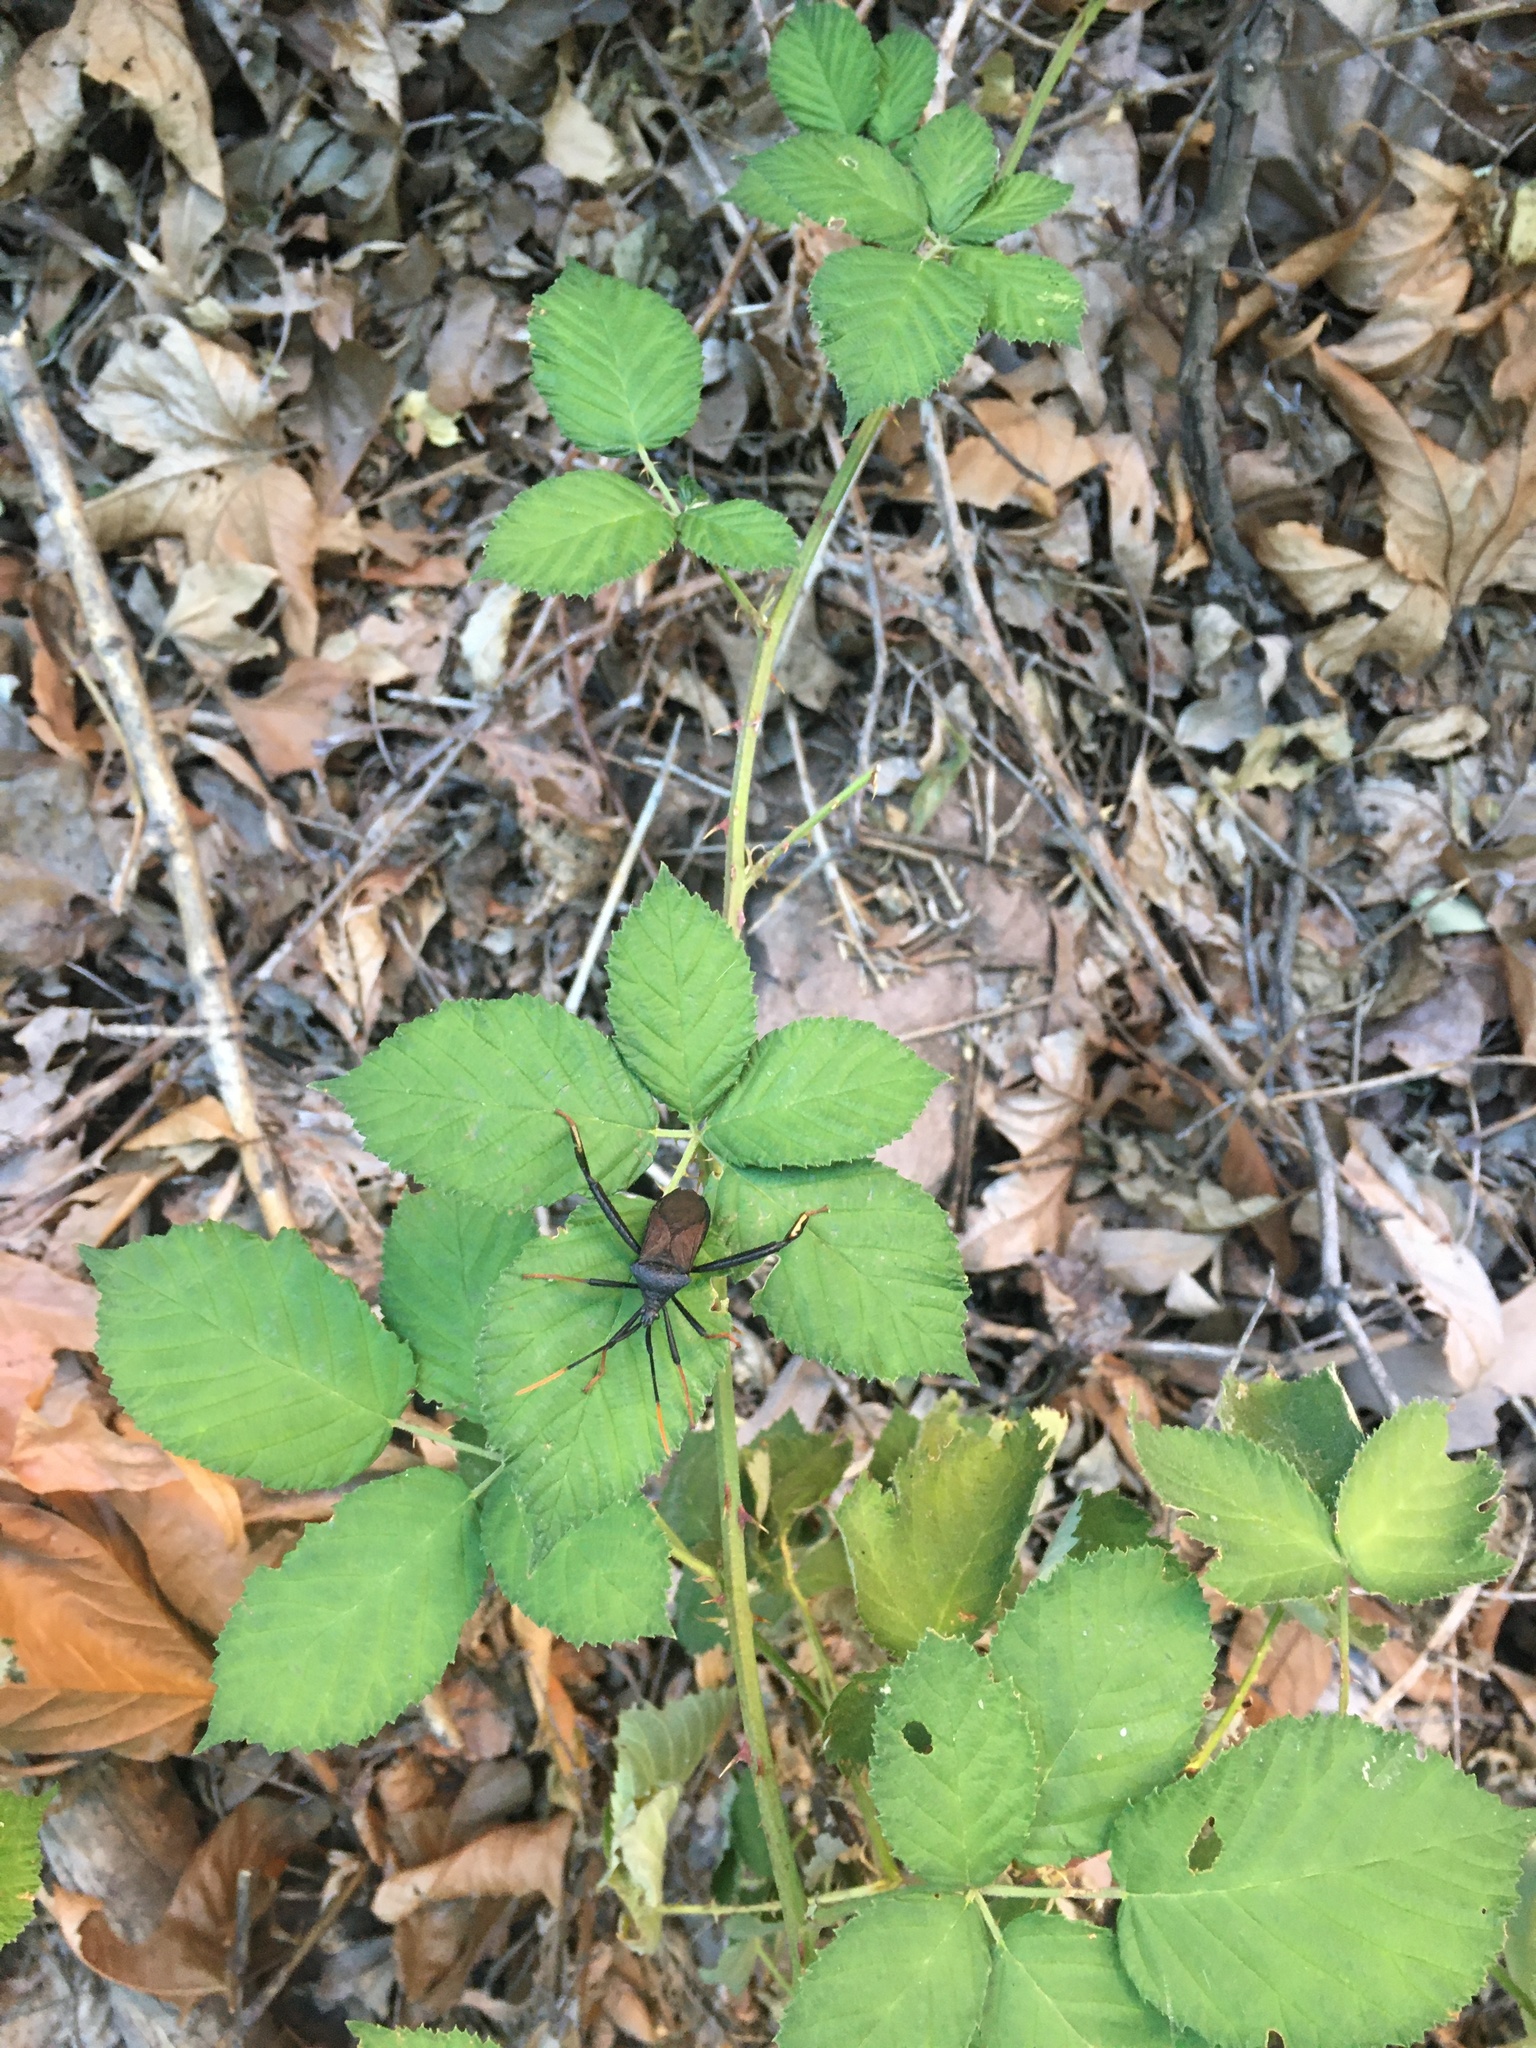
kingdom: Animalia
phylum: Arthropoda
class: Insecta
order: Hemiptera
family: Coreidae
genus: Acanthocephala
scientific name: Acanthocephala thomasi
